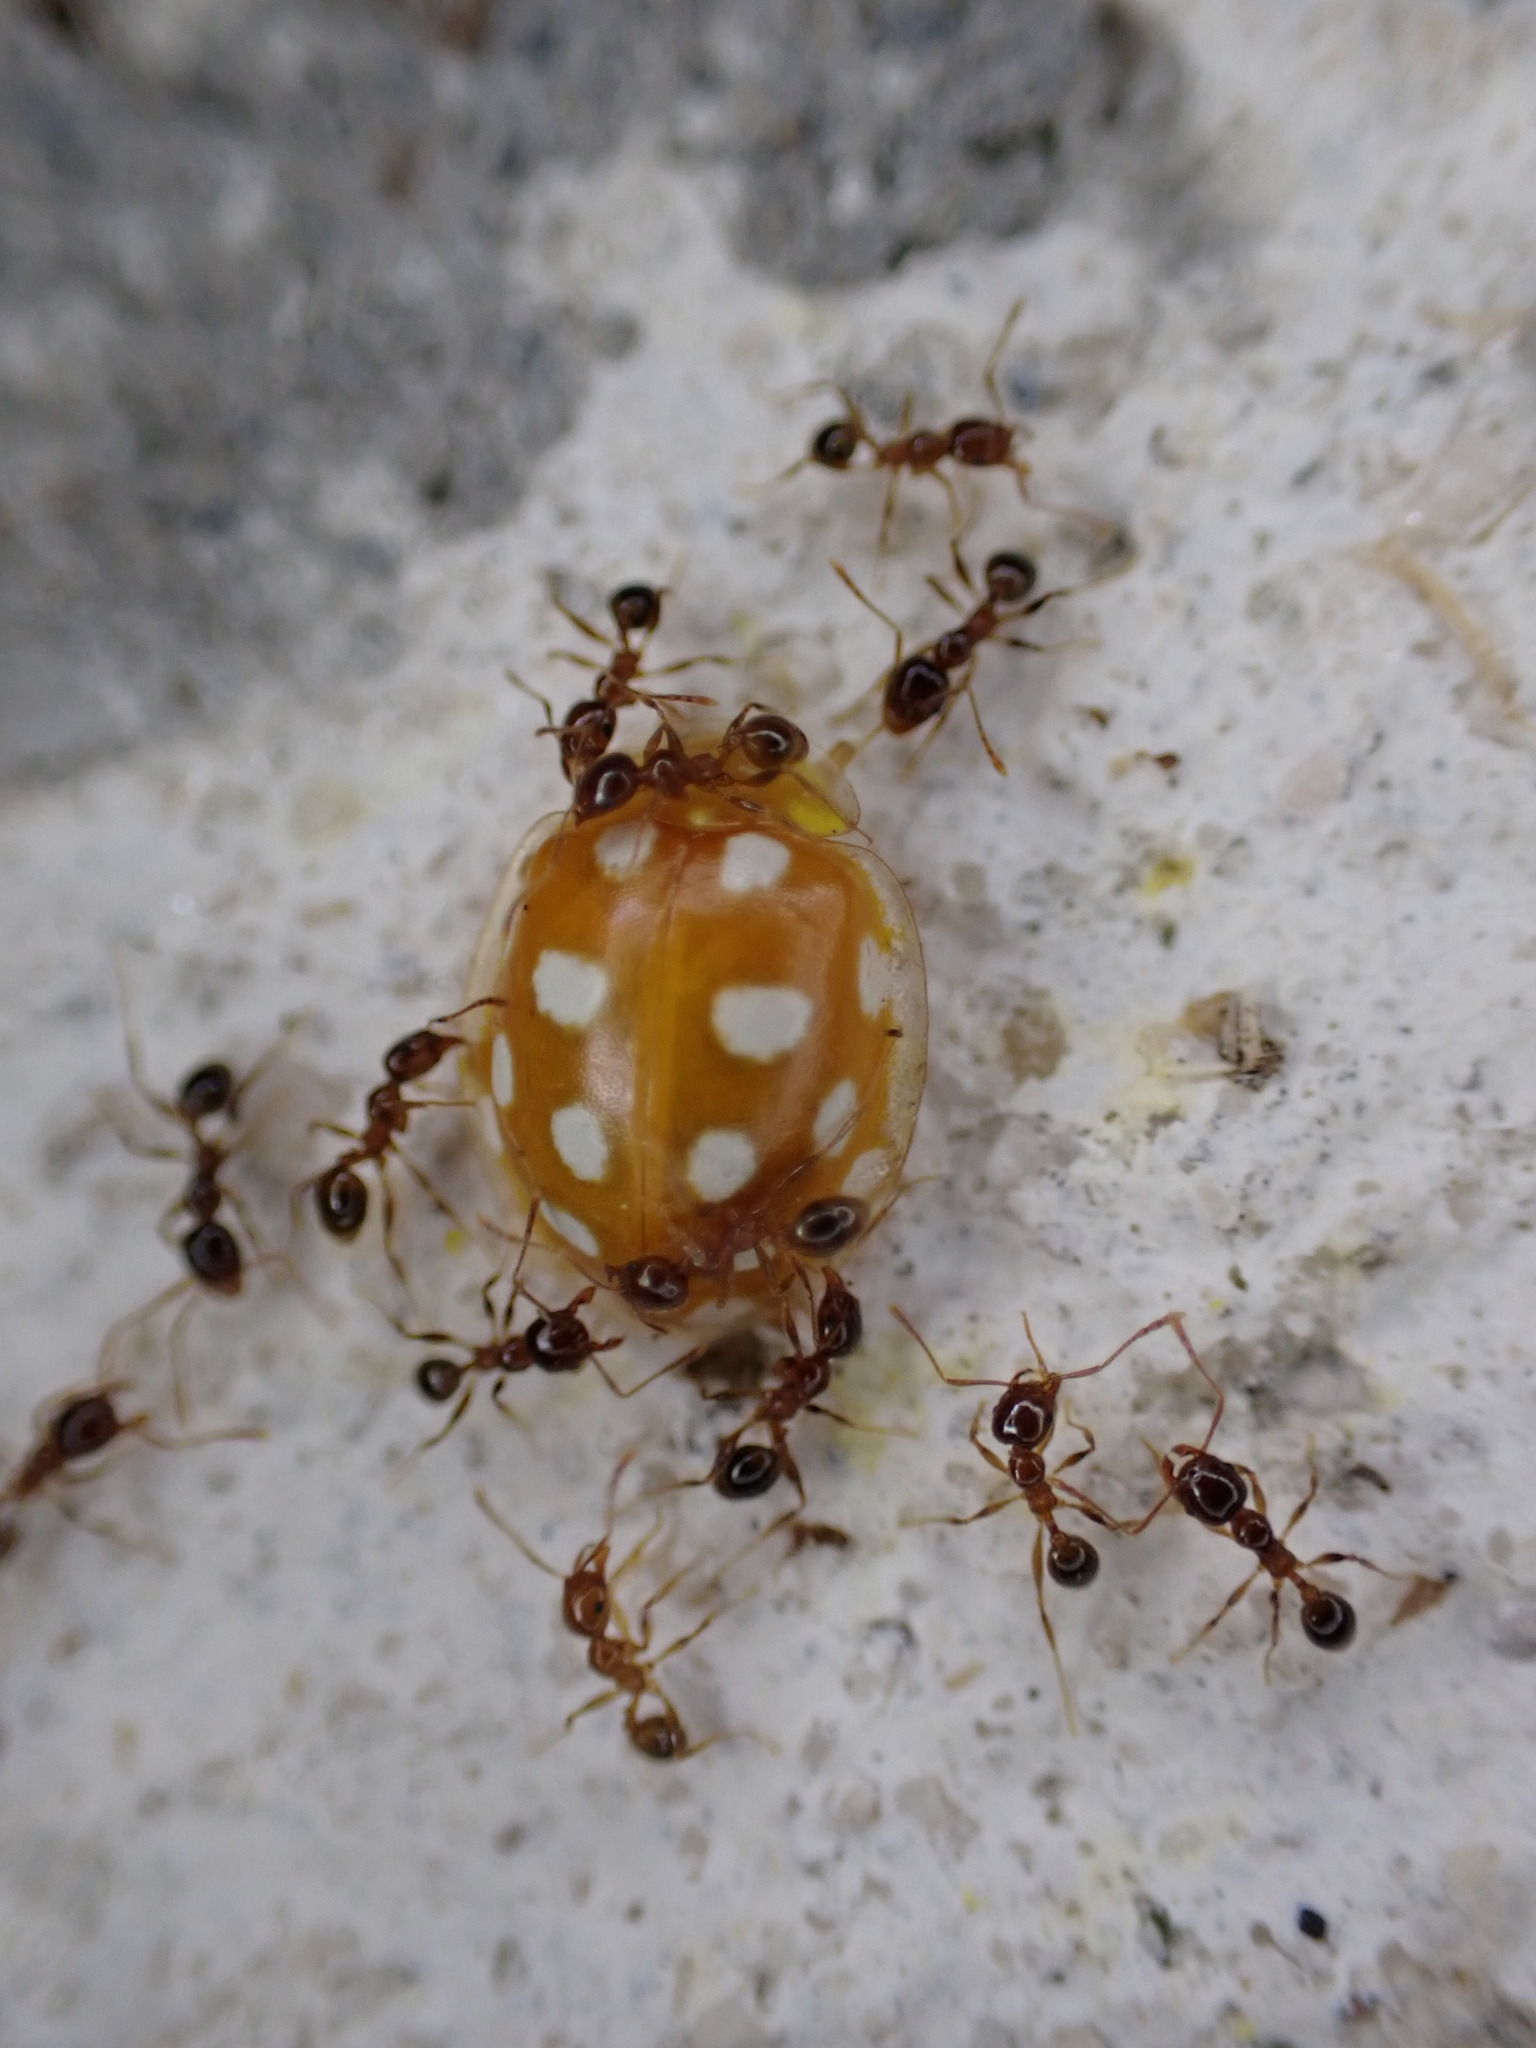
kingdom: Animalia
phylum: Arthropoda
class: Insecta
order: Coleoptera
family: Coccinellidae
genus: Halyzia
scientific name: Halyzia sedecimguttata
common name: Orange ladybird
